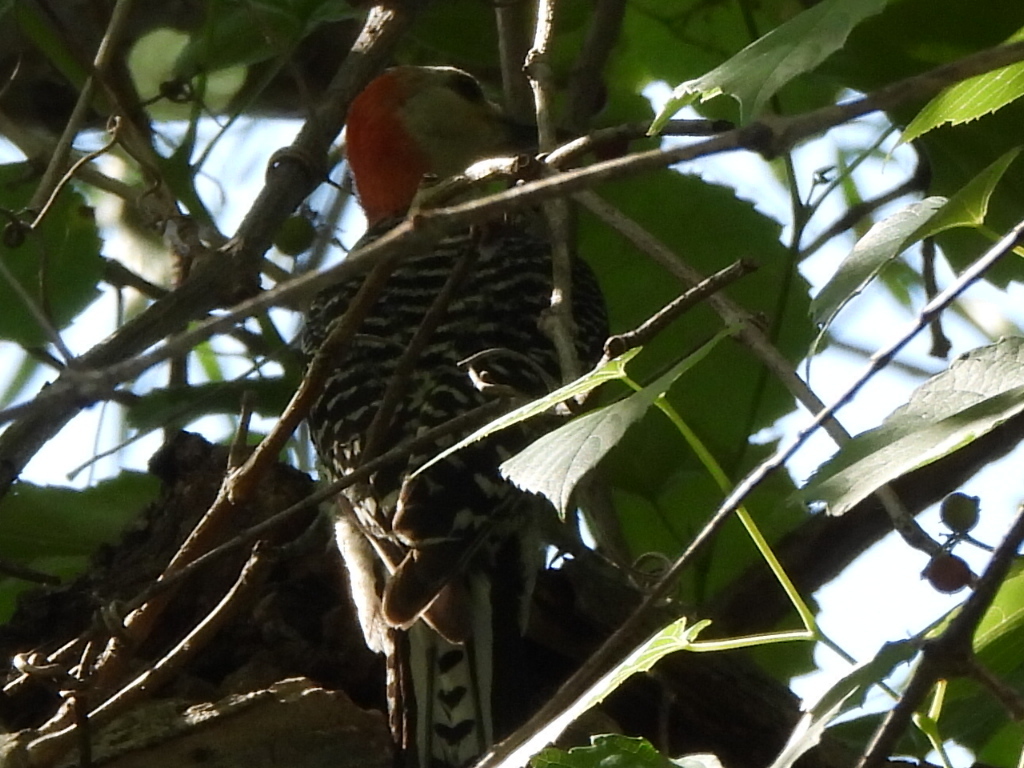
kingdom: Animalia
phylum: Chordata
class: Aves
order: Piciformes
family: Picidae
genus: Melanerpes
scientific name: Melanerpes carolinus
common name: Red-bellied woodpecker
